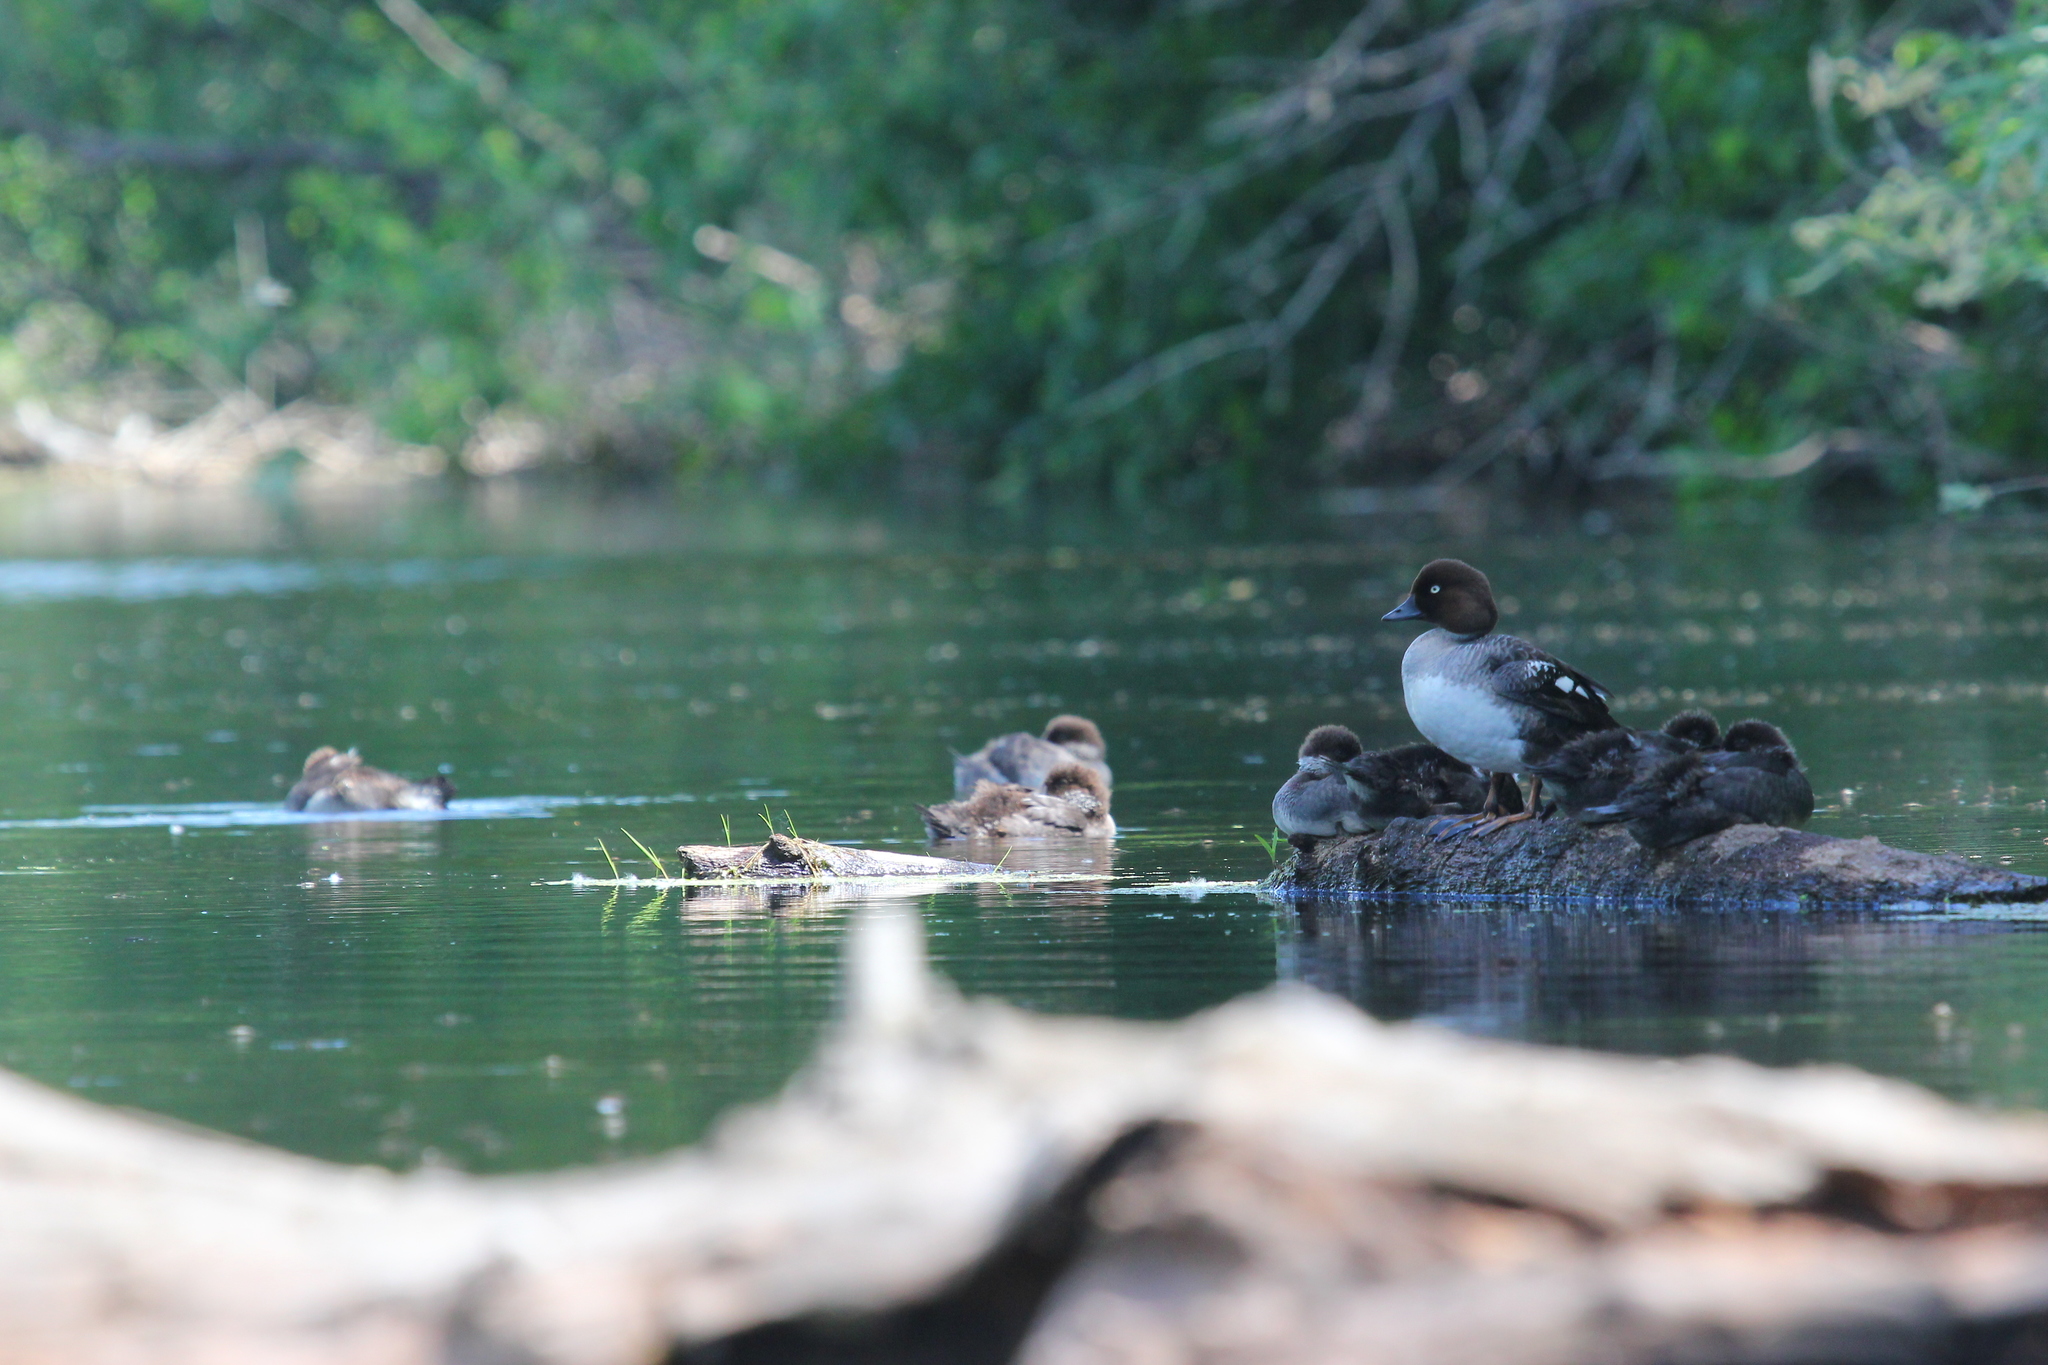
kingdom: Animalia
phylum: Chordata
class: Aves
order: Anseriformes
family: Anatidae
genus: Bucephala
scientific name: Bucephala clangula
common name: Common goldeneye
